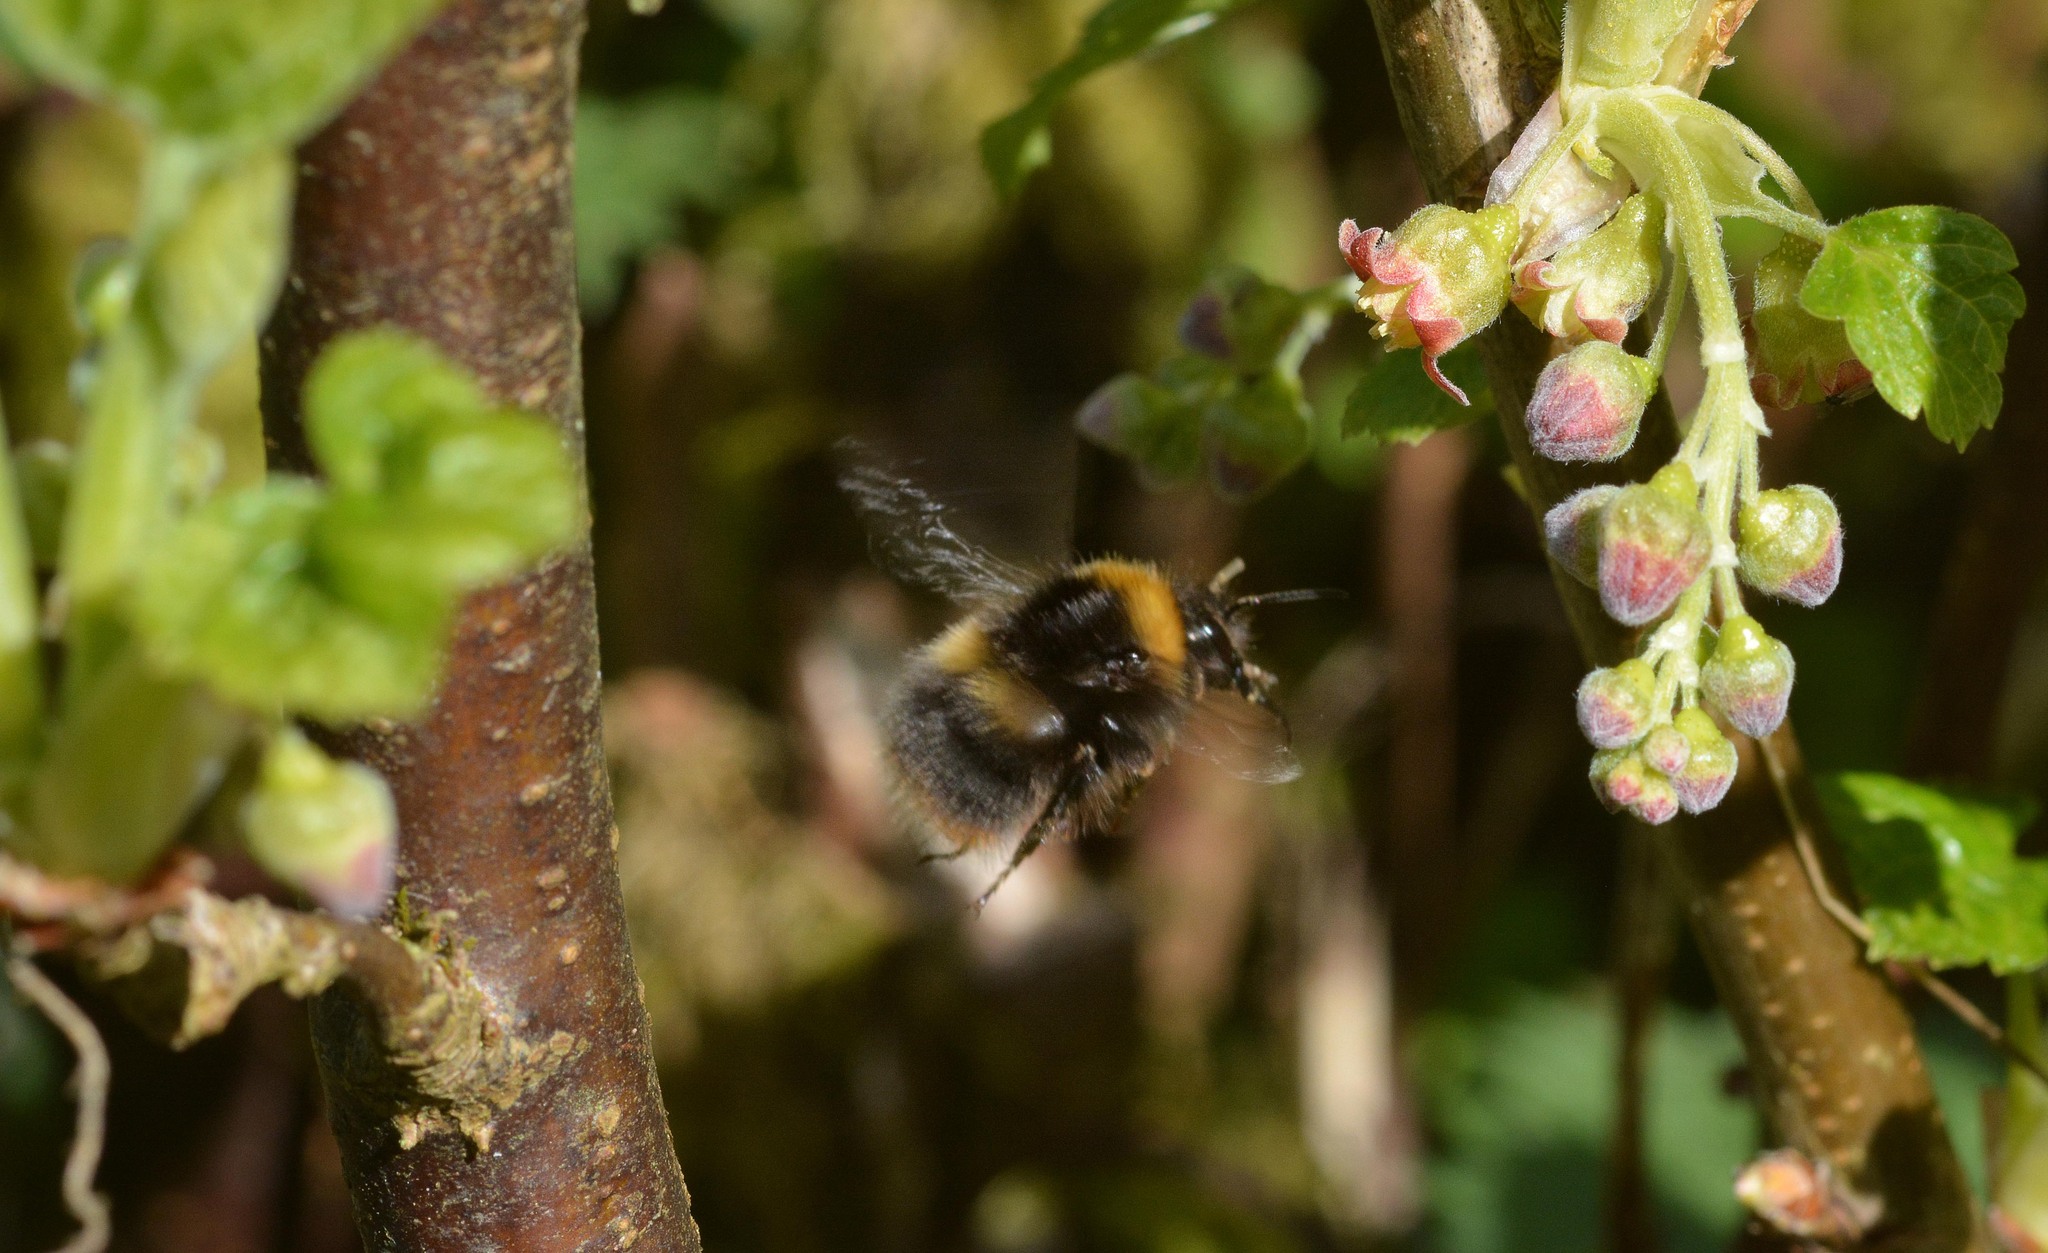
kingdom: Animalia
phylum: Arthropoda
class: Insecta
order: Hymenoptera
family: Apidae
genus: Bombus
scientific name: Bombus pratorum
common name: Early humble-bee
